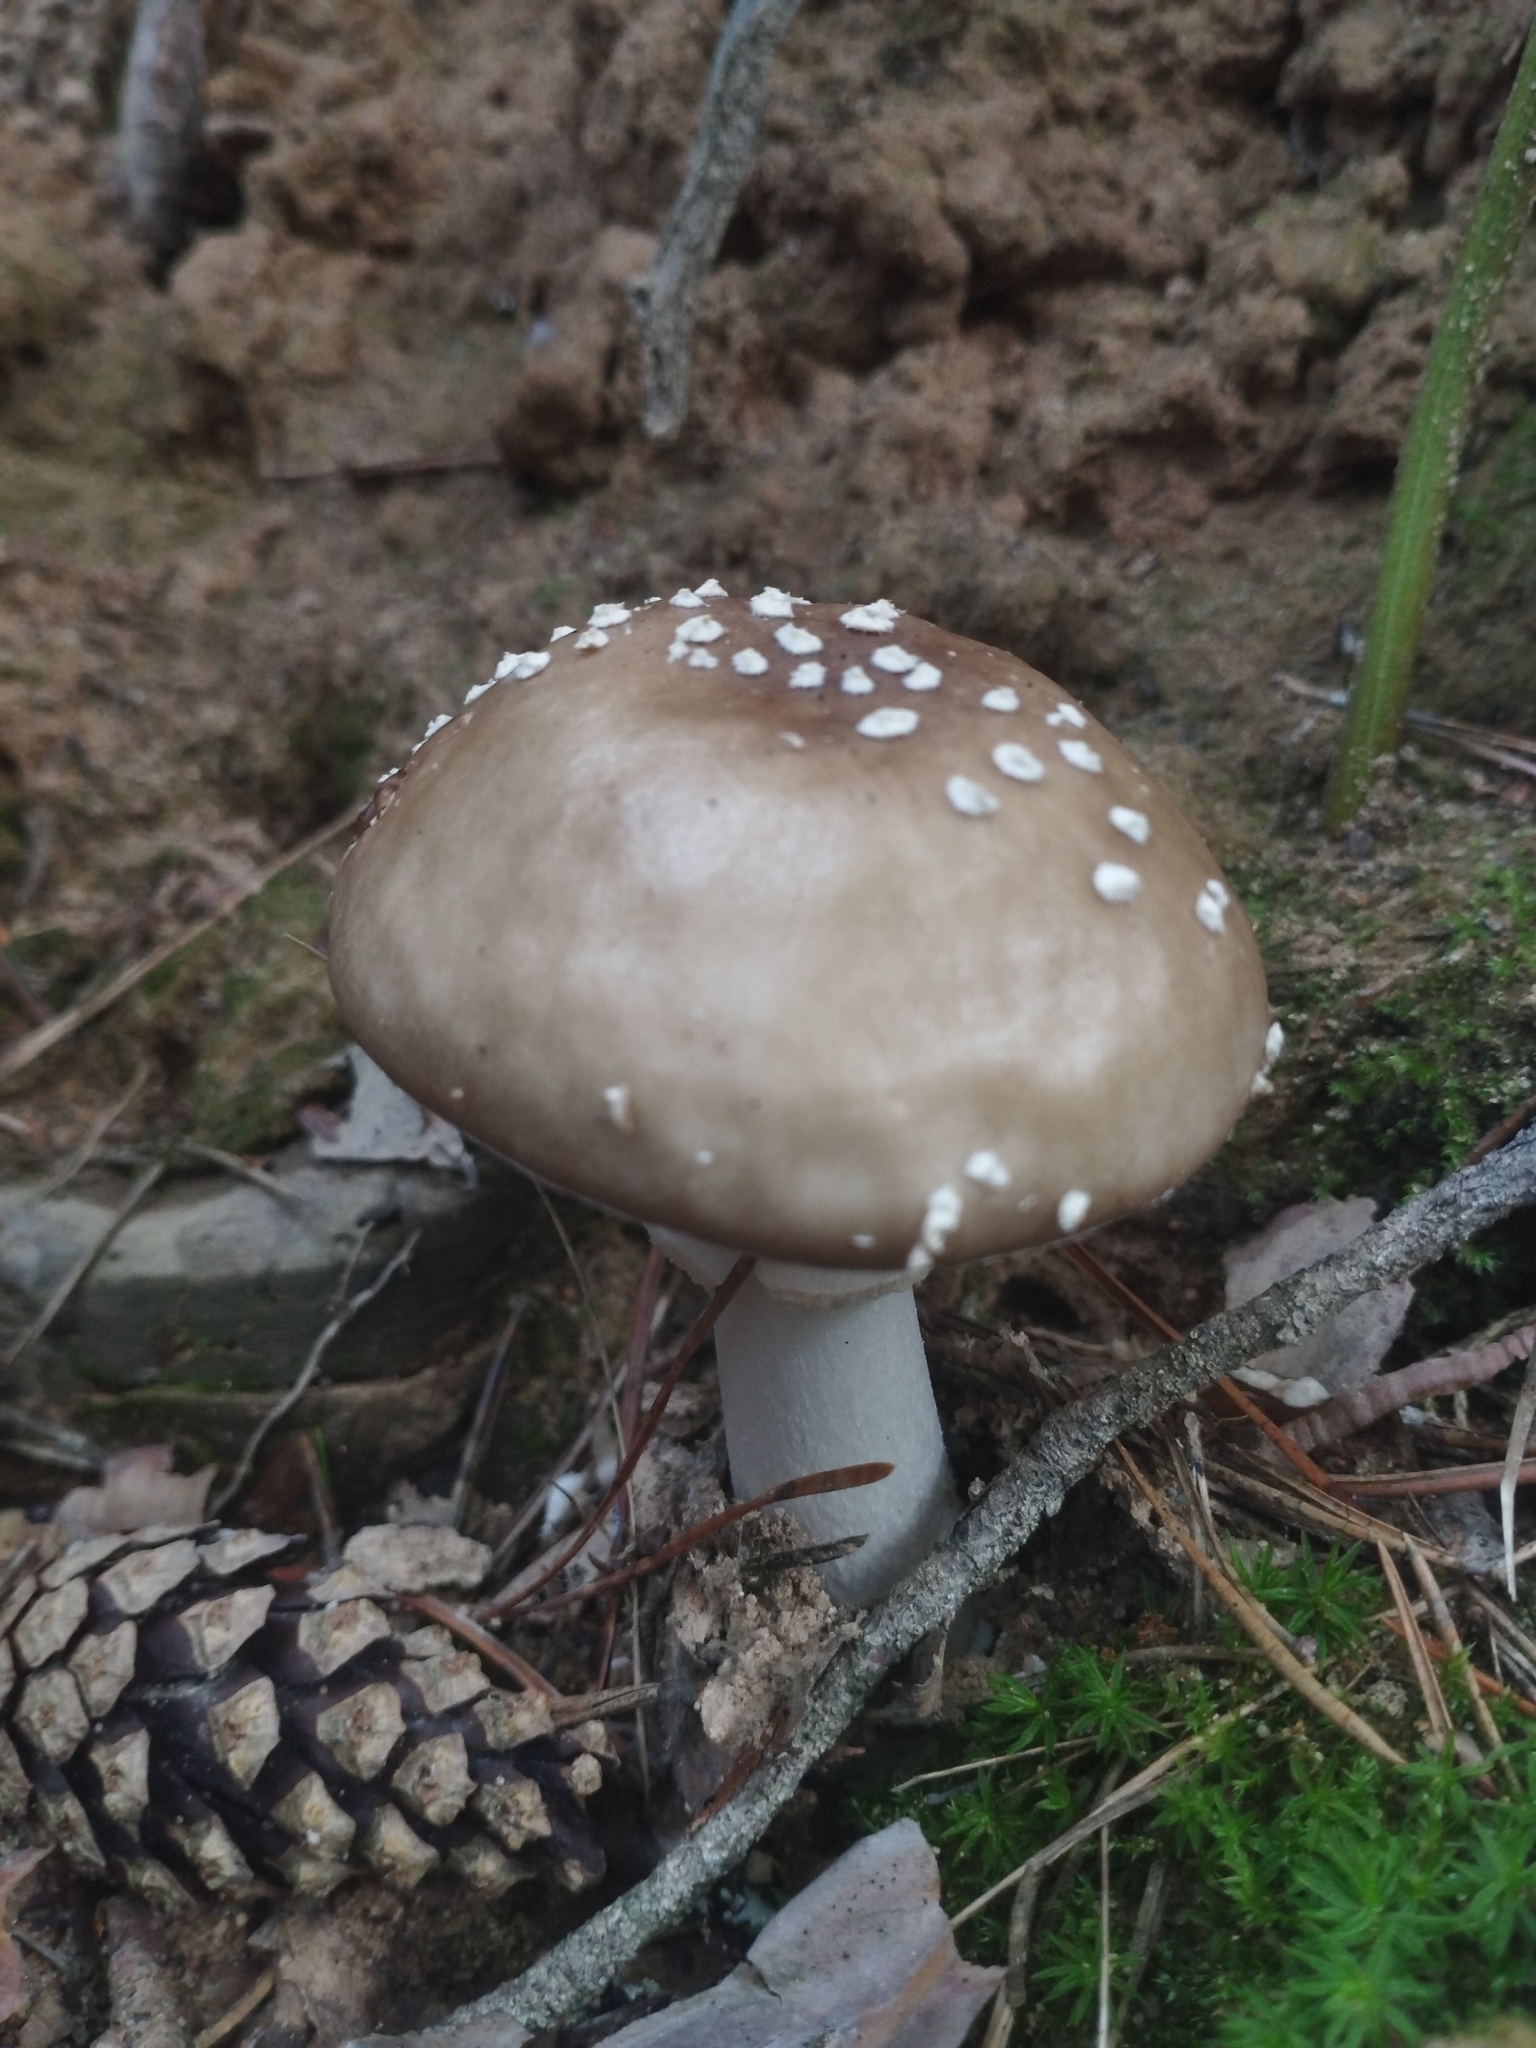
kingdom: Fungi
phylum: Basidiomycota
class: Agaricomycetes
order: Agaricales
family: Amanitaceae
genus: Amanita
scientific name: Amanita pantherina
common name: Panthercap
